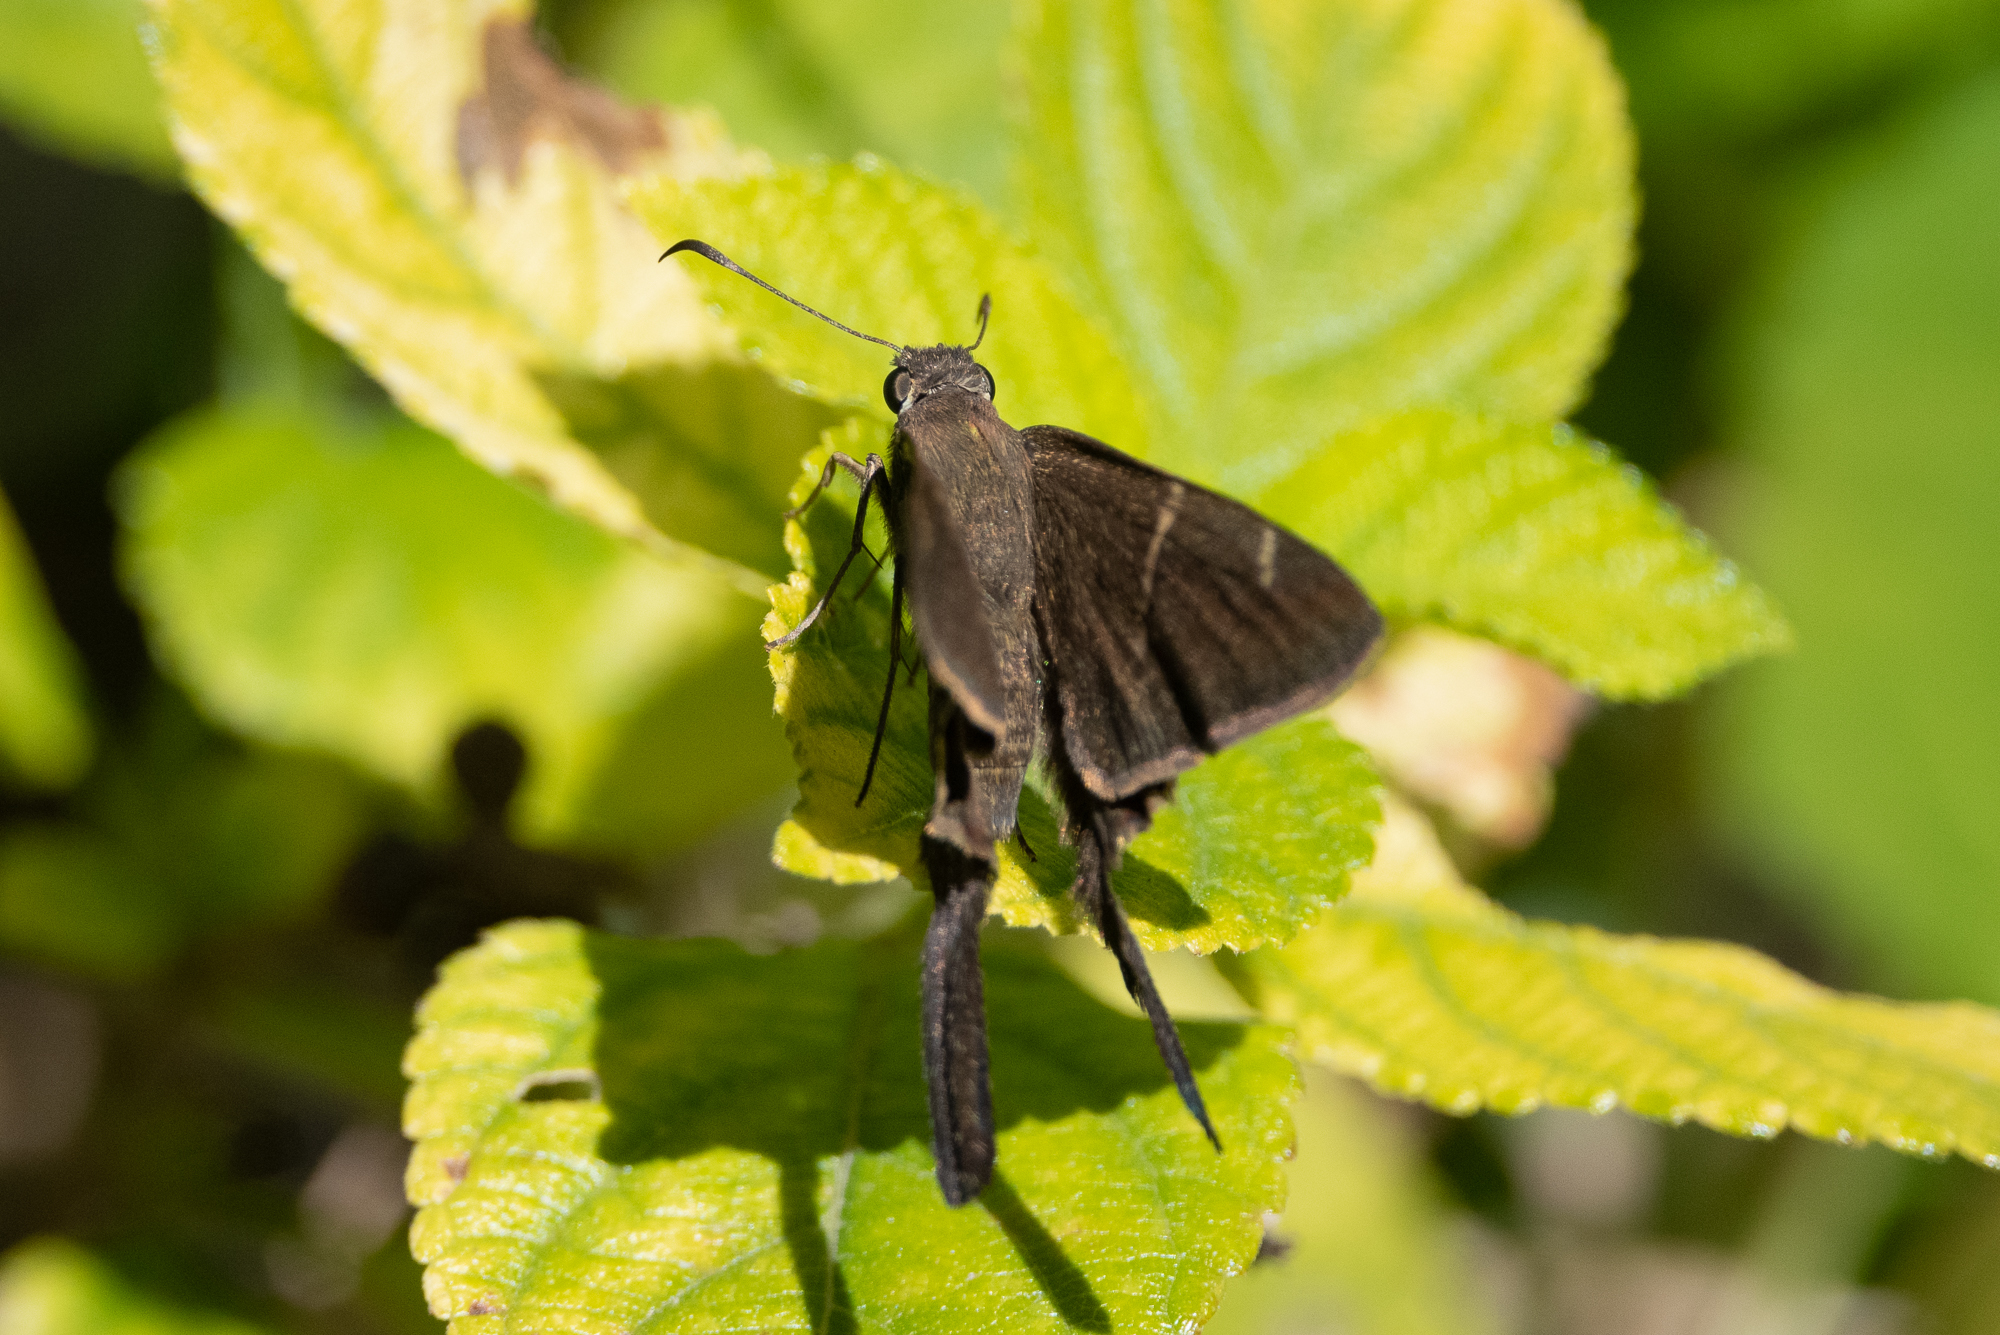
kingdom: Animalia
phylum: Arthropoda
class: Insecta
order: Lepidoptera
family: Hesperiidae
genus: Urbanus
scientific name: Urbanus procne
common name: Brown longtail
